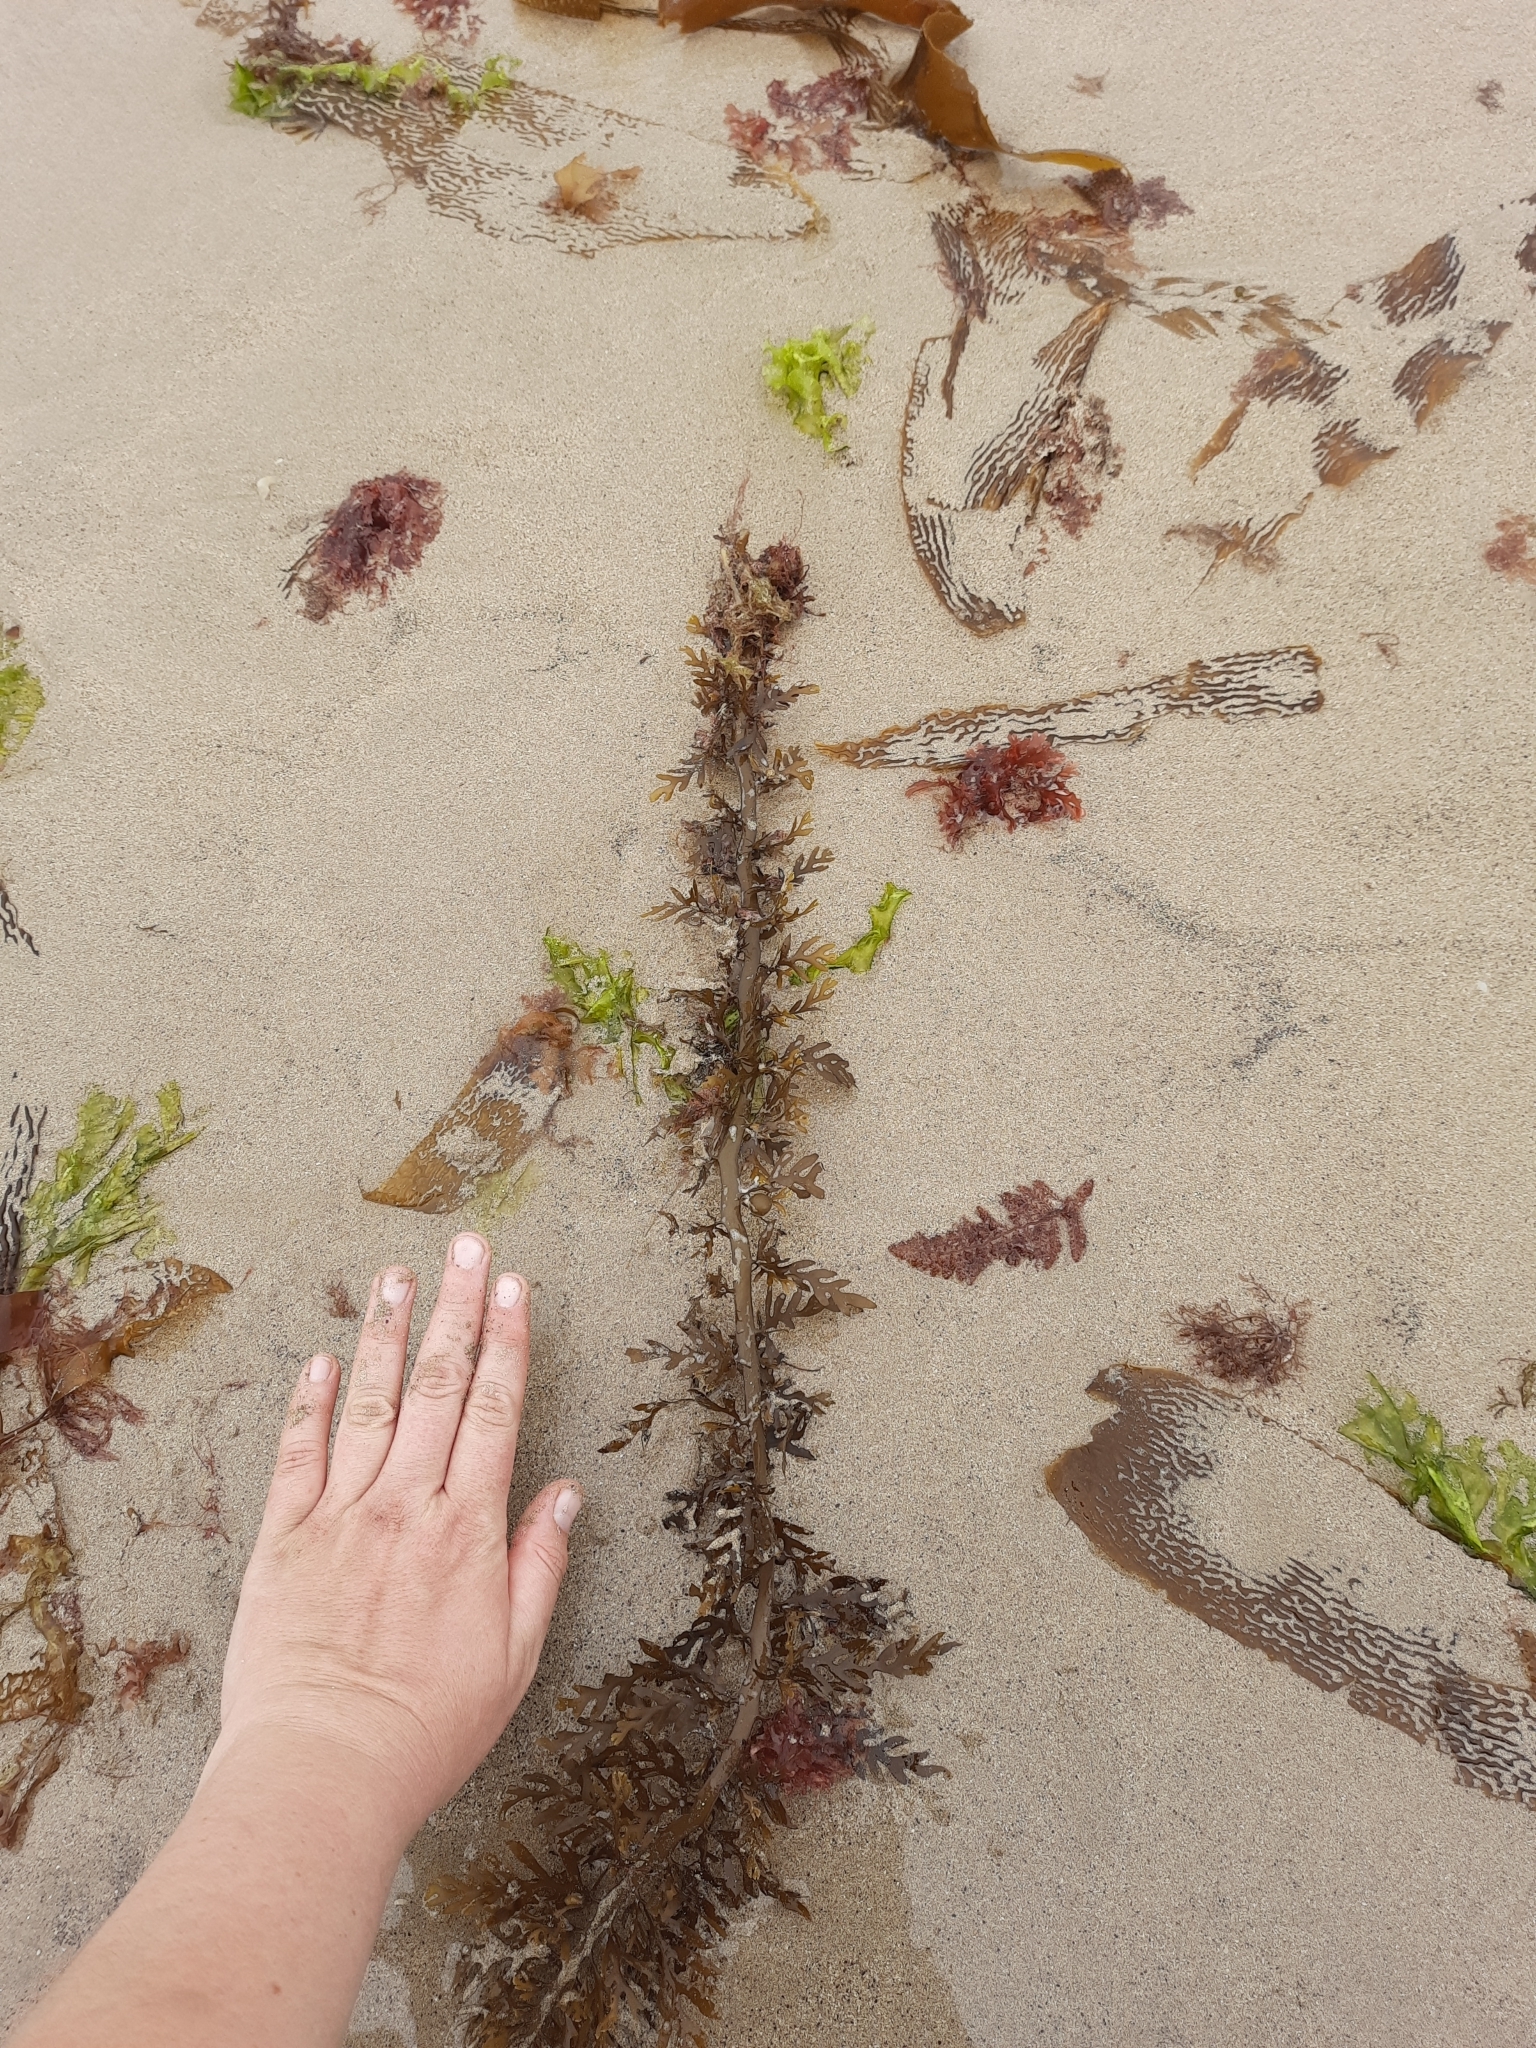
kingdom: Chromista
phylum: Ochrophyta
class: Phaeophyceae
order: Fucales
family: Sargassaceae
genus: Carpophyllum
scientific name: Carpophyllum plumosum
